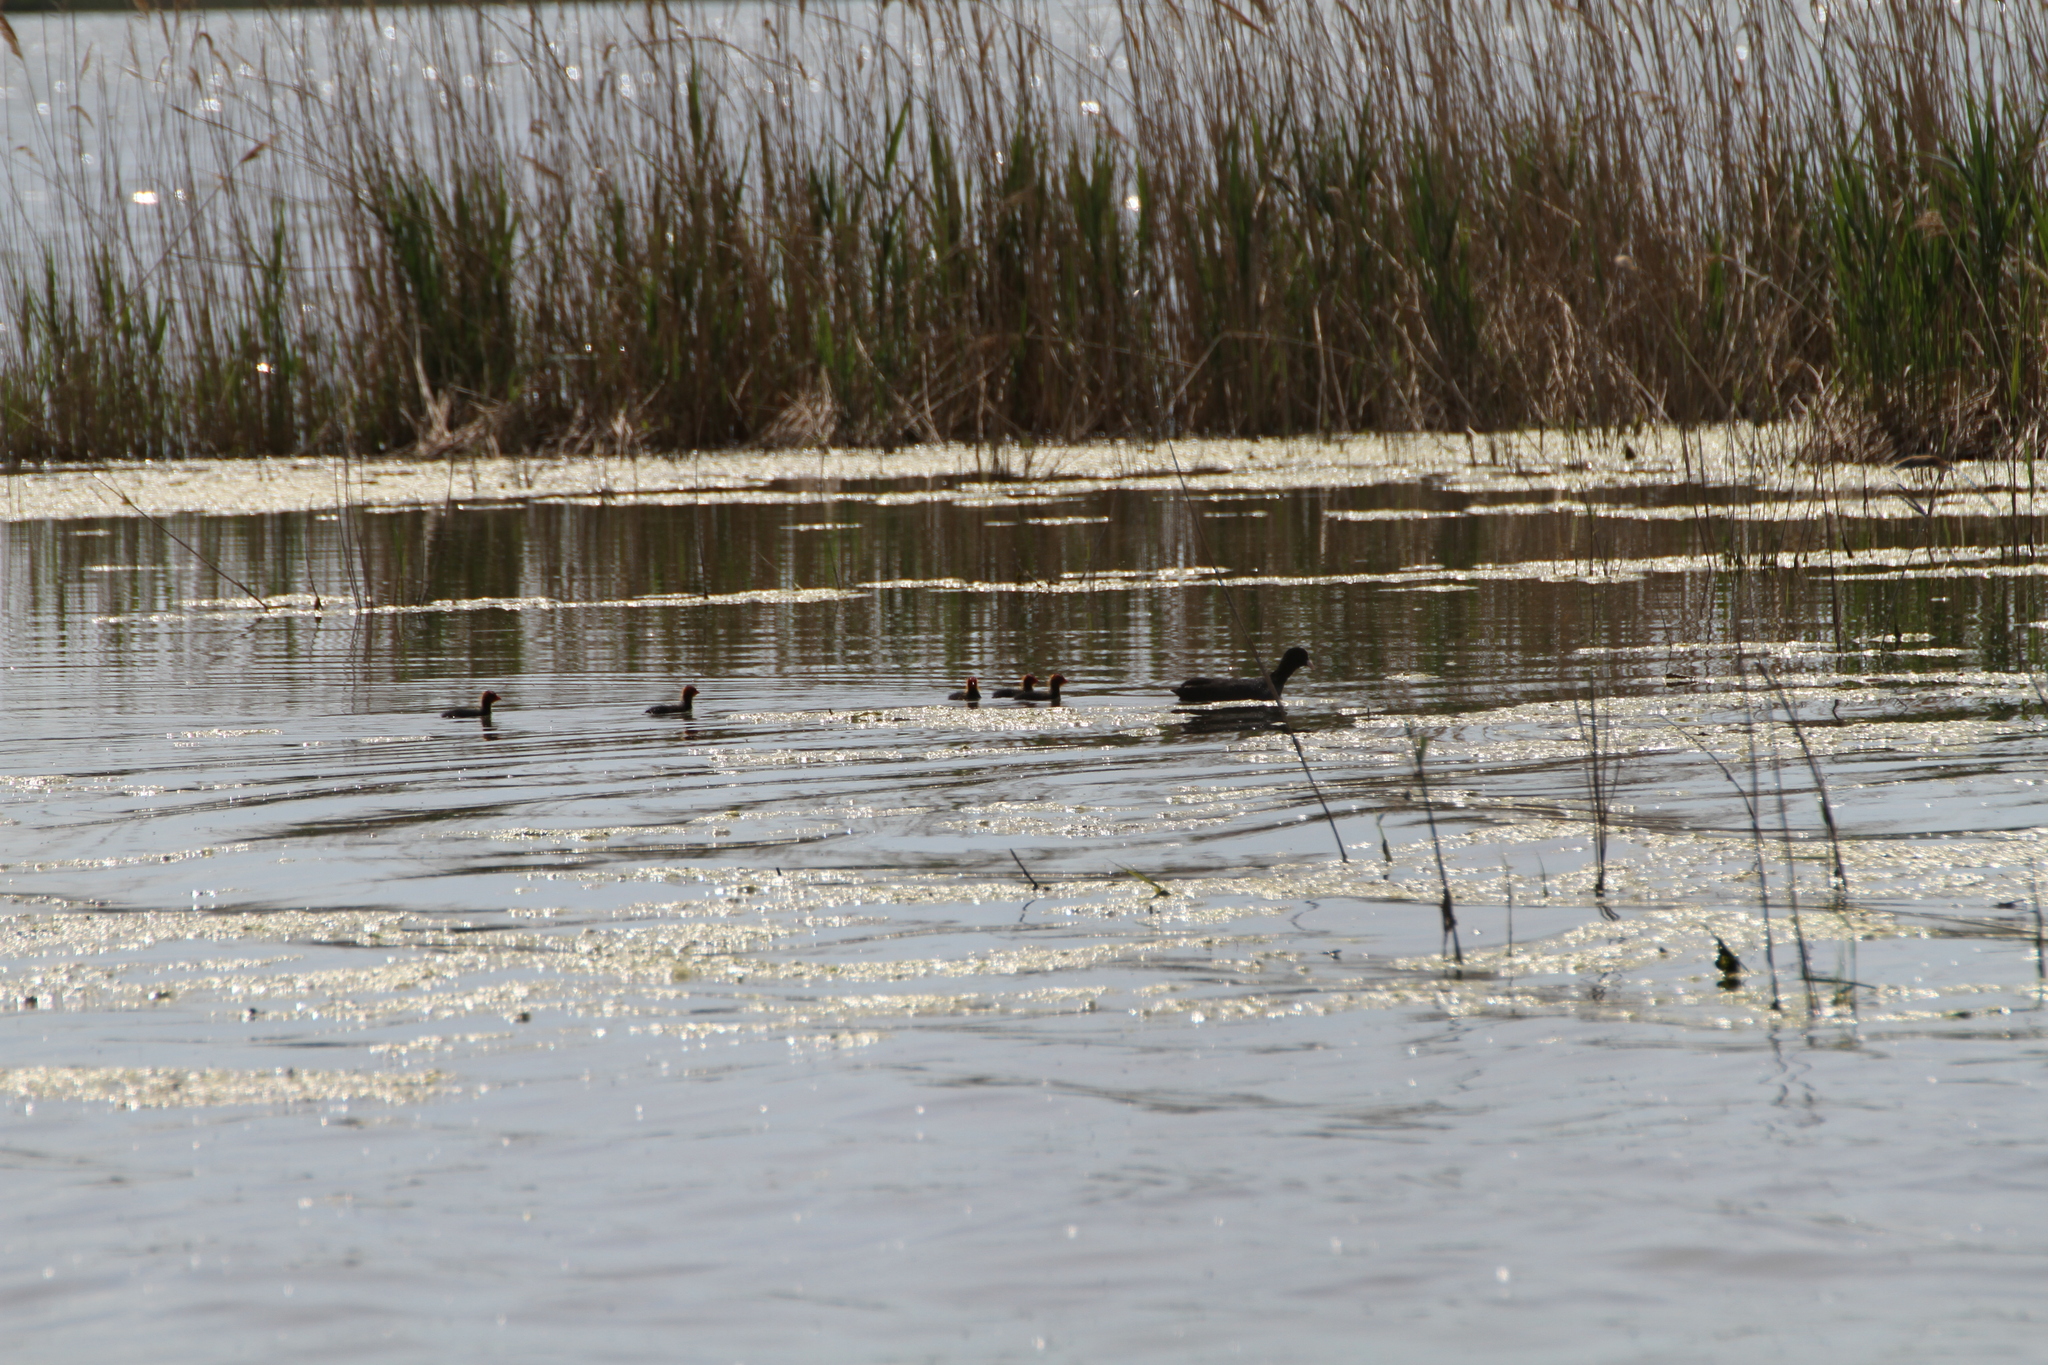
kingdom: Animalia
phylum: Chordata
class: Aves
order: Gruiformes
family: Rallidae
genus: Fulica
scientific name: Fulica atra
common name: Eurasian coot
